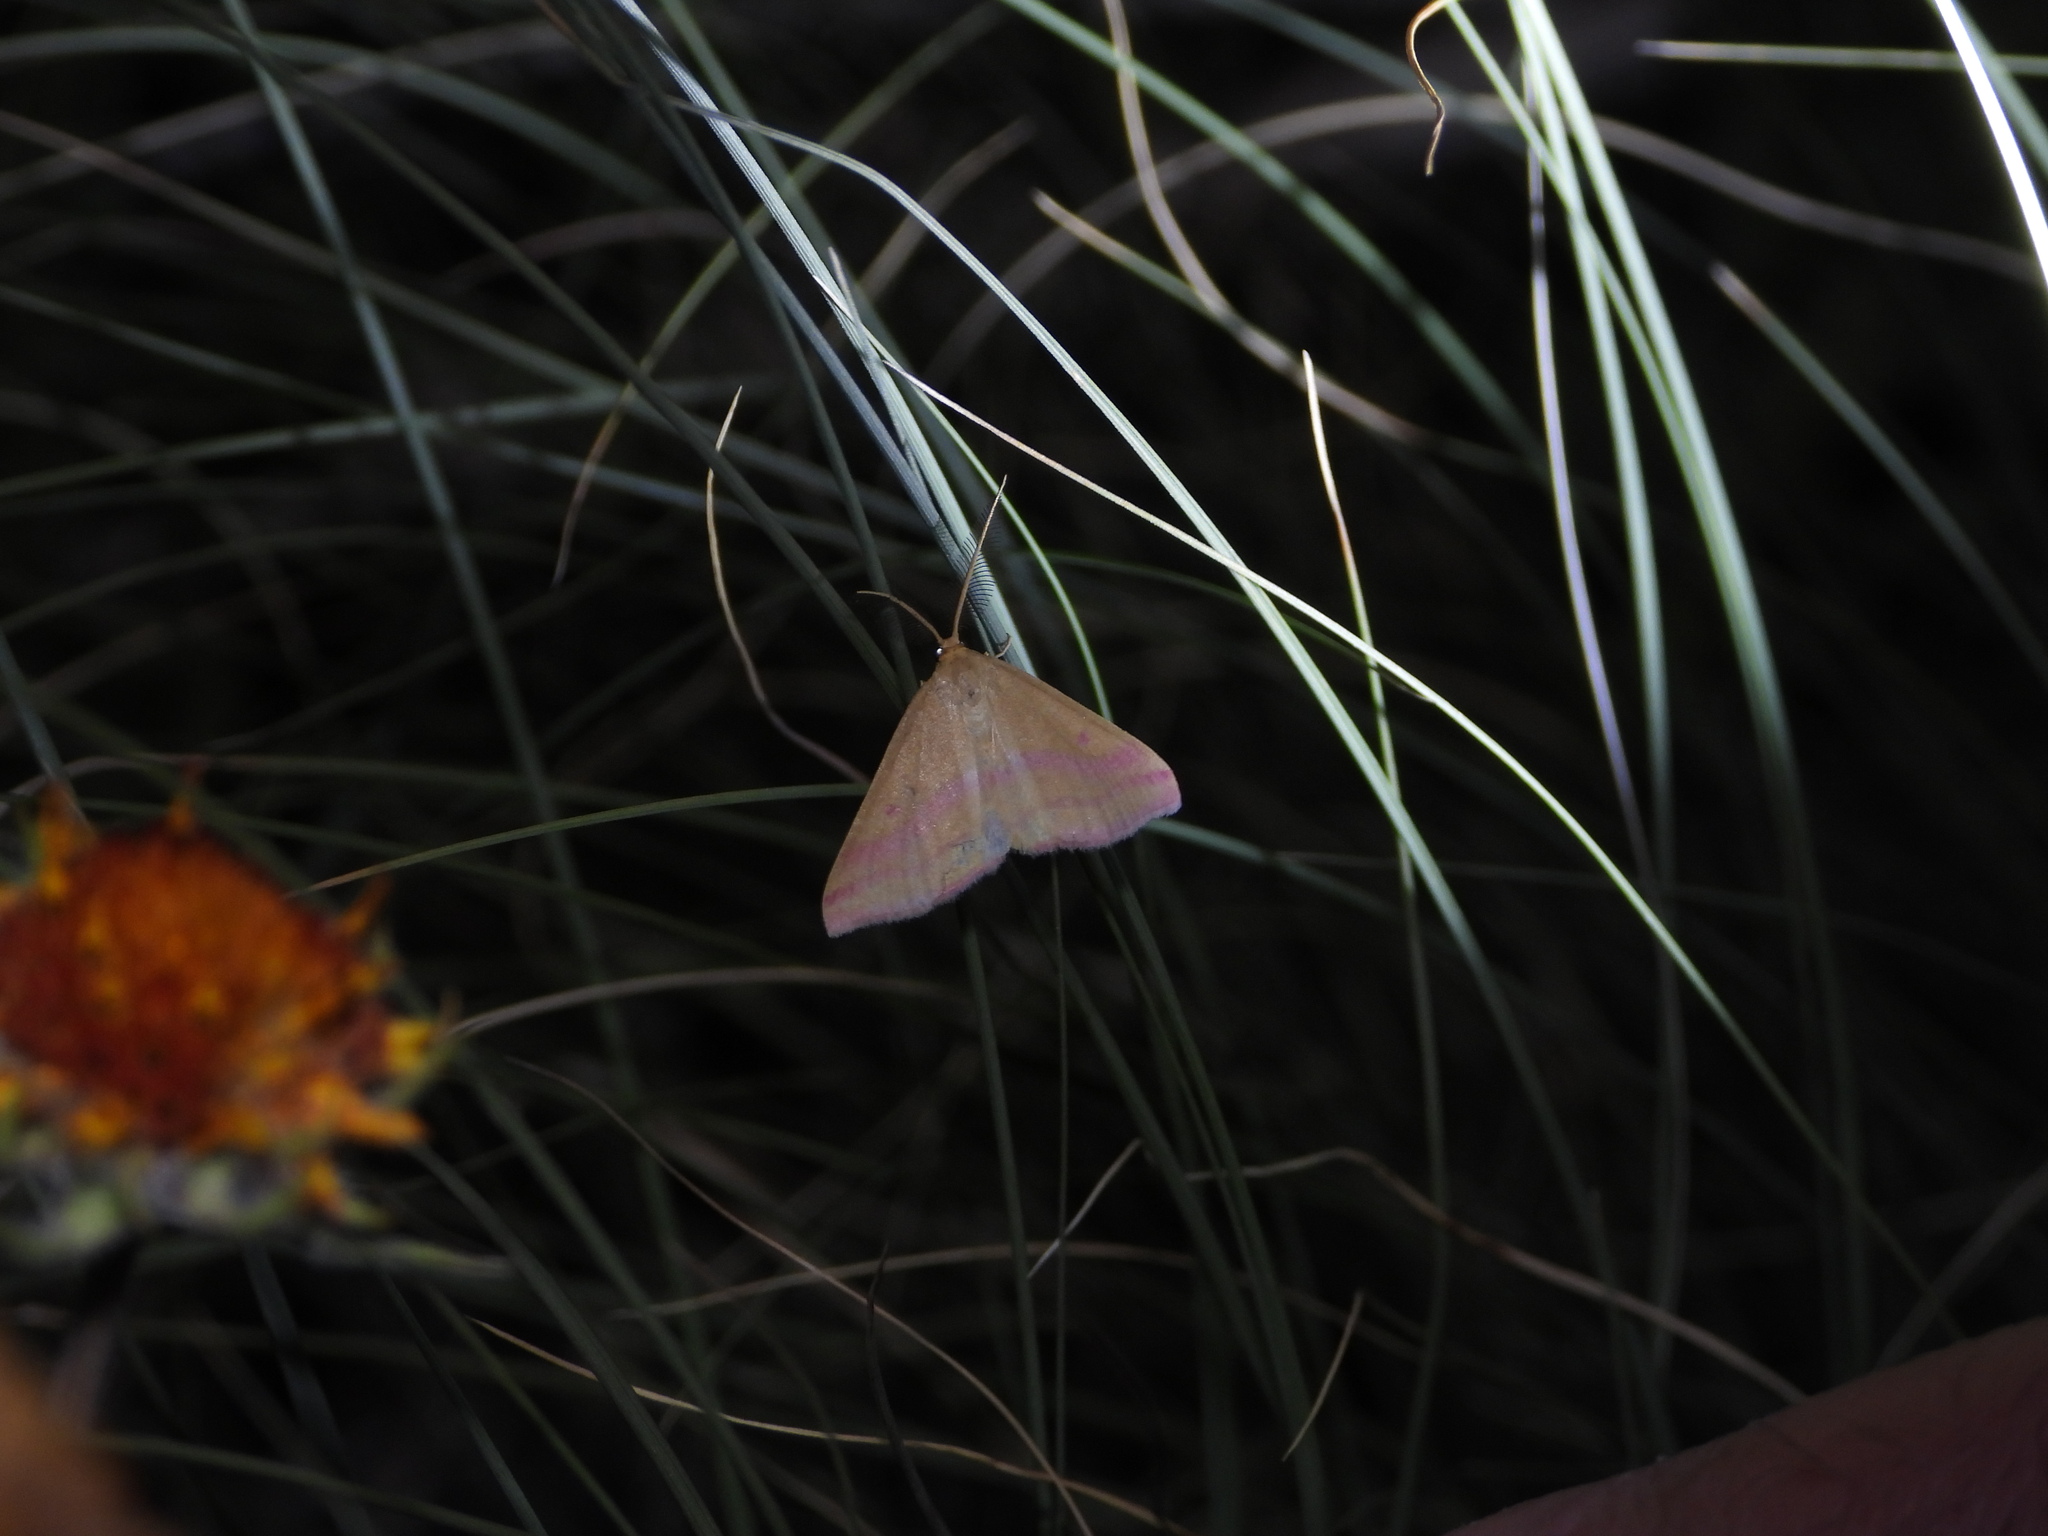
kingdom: Animalia
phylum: Arthropoda
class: Insecta
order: Lepidoptera
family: Geometridae
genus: Haematopis
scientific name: Haematopis grataria
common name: Chickweed geometer
